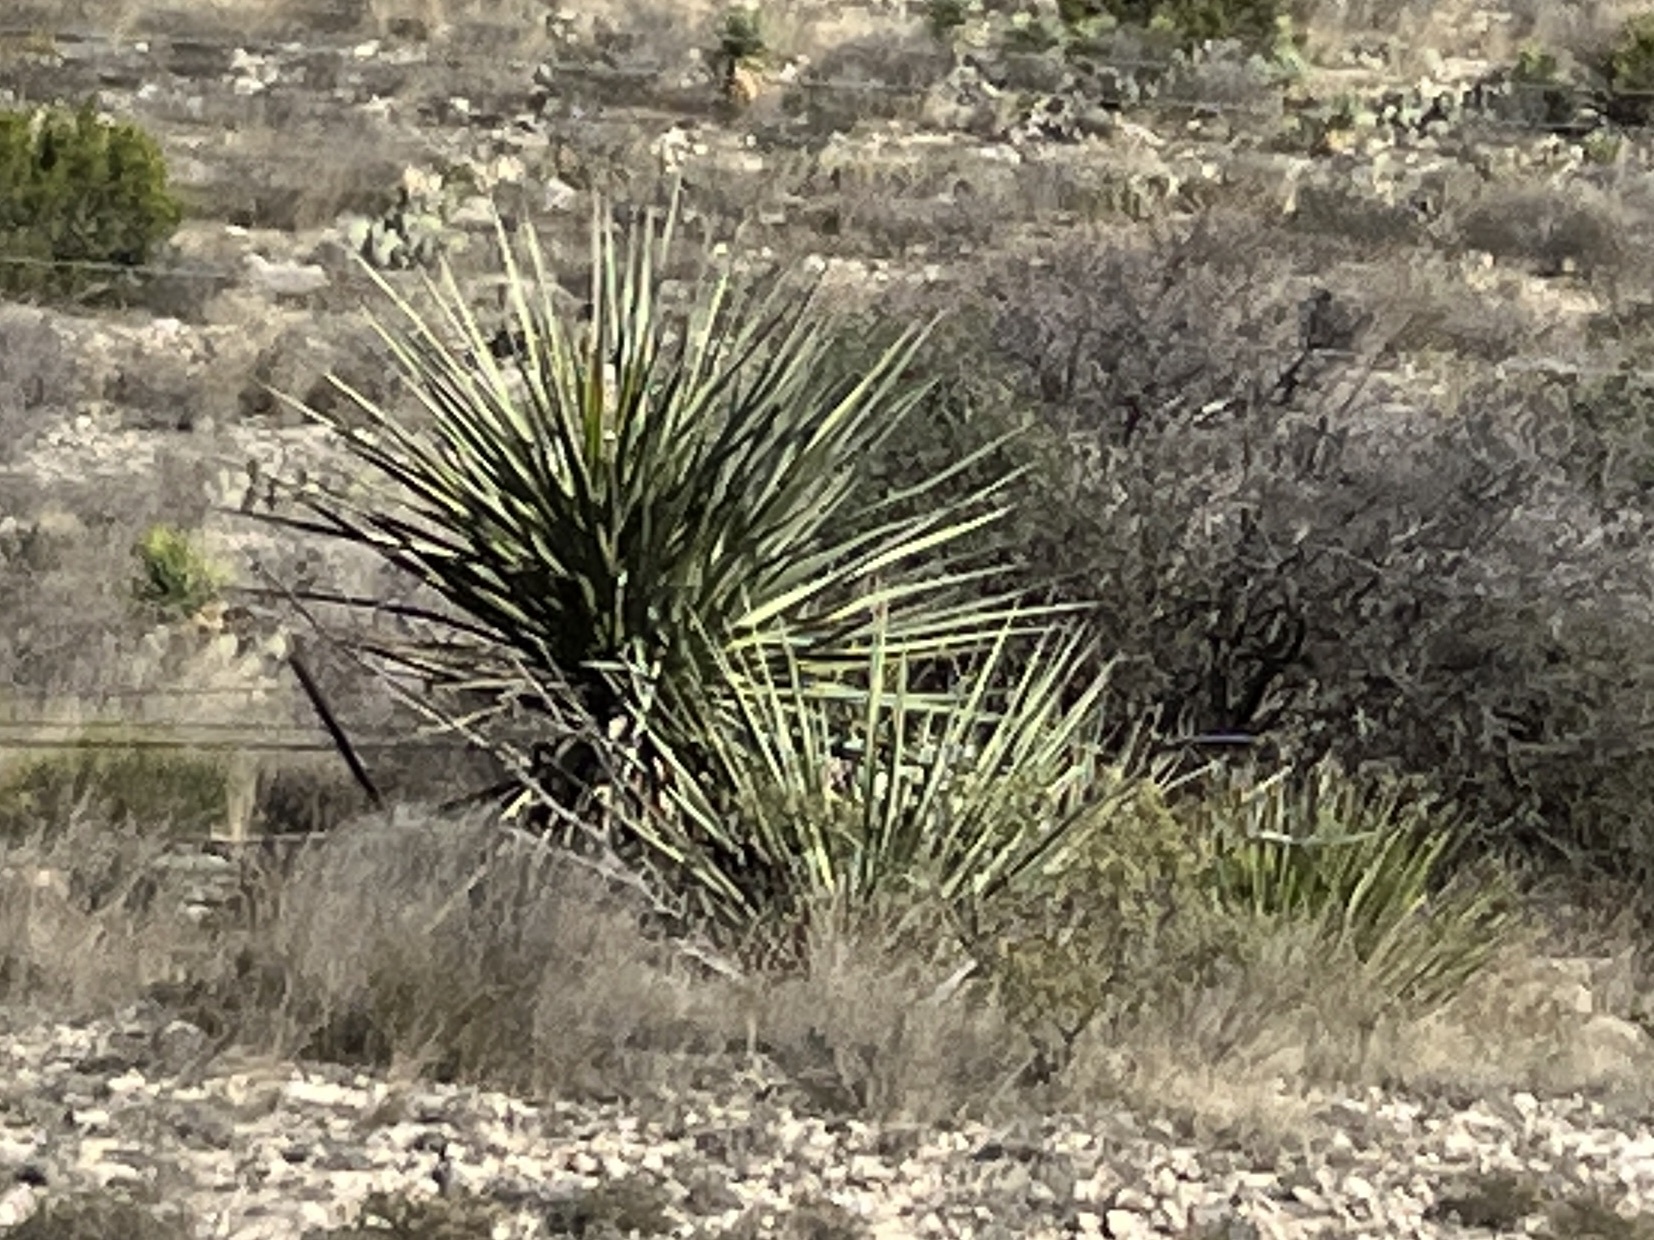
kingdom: Plantae
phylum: Tracheophyta
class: Liliopsida
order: Asparagales
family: Asparagaceae
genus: Yucca
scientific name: Yucca treculiana
